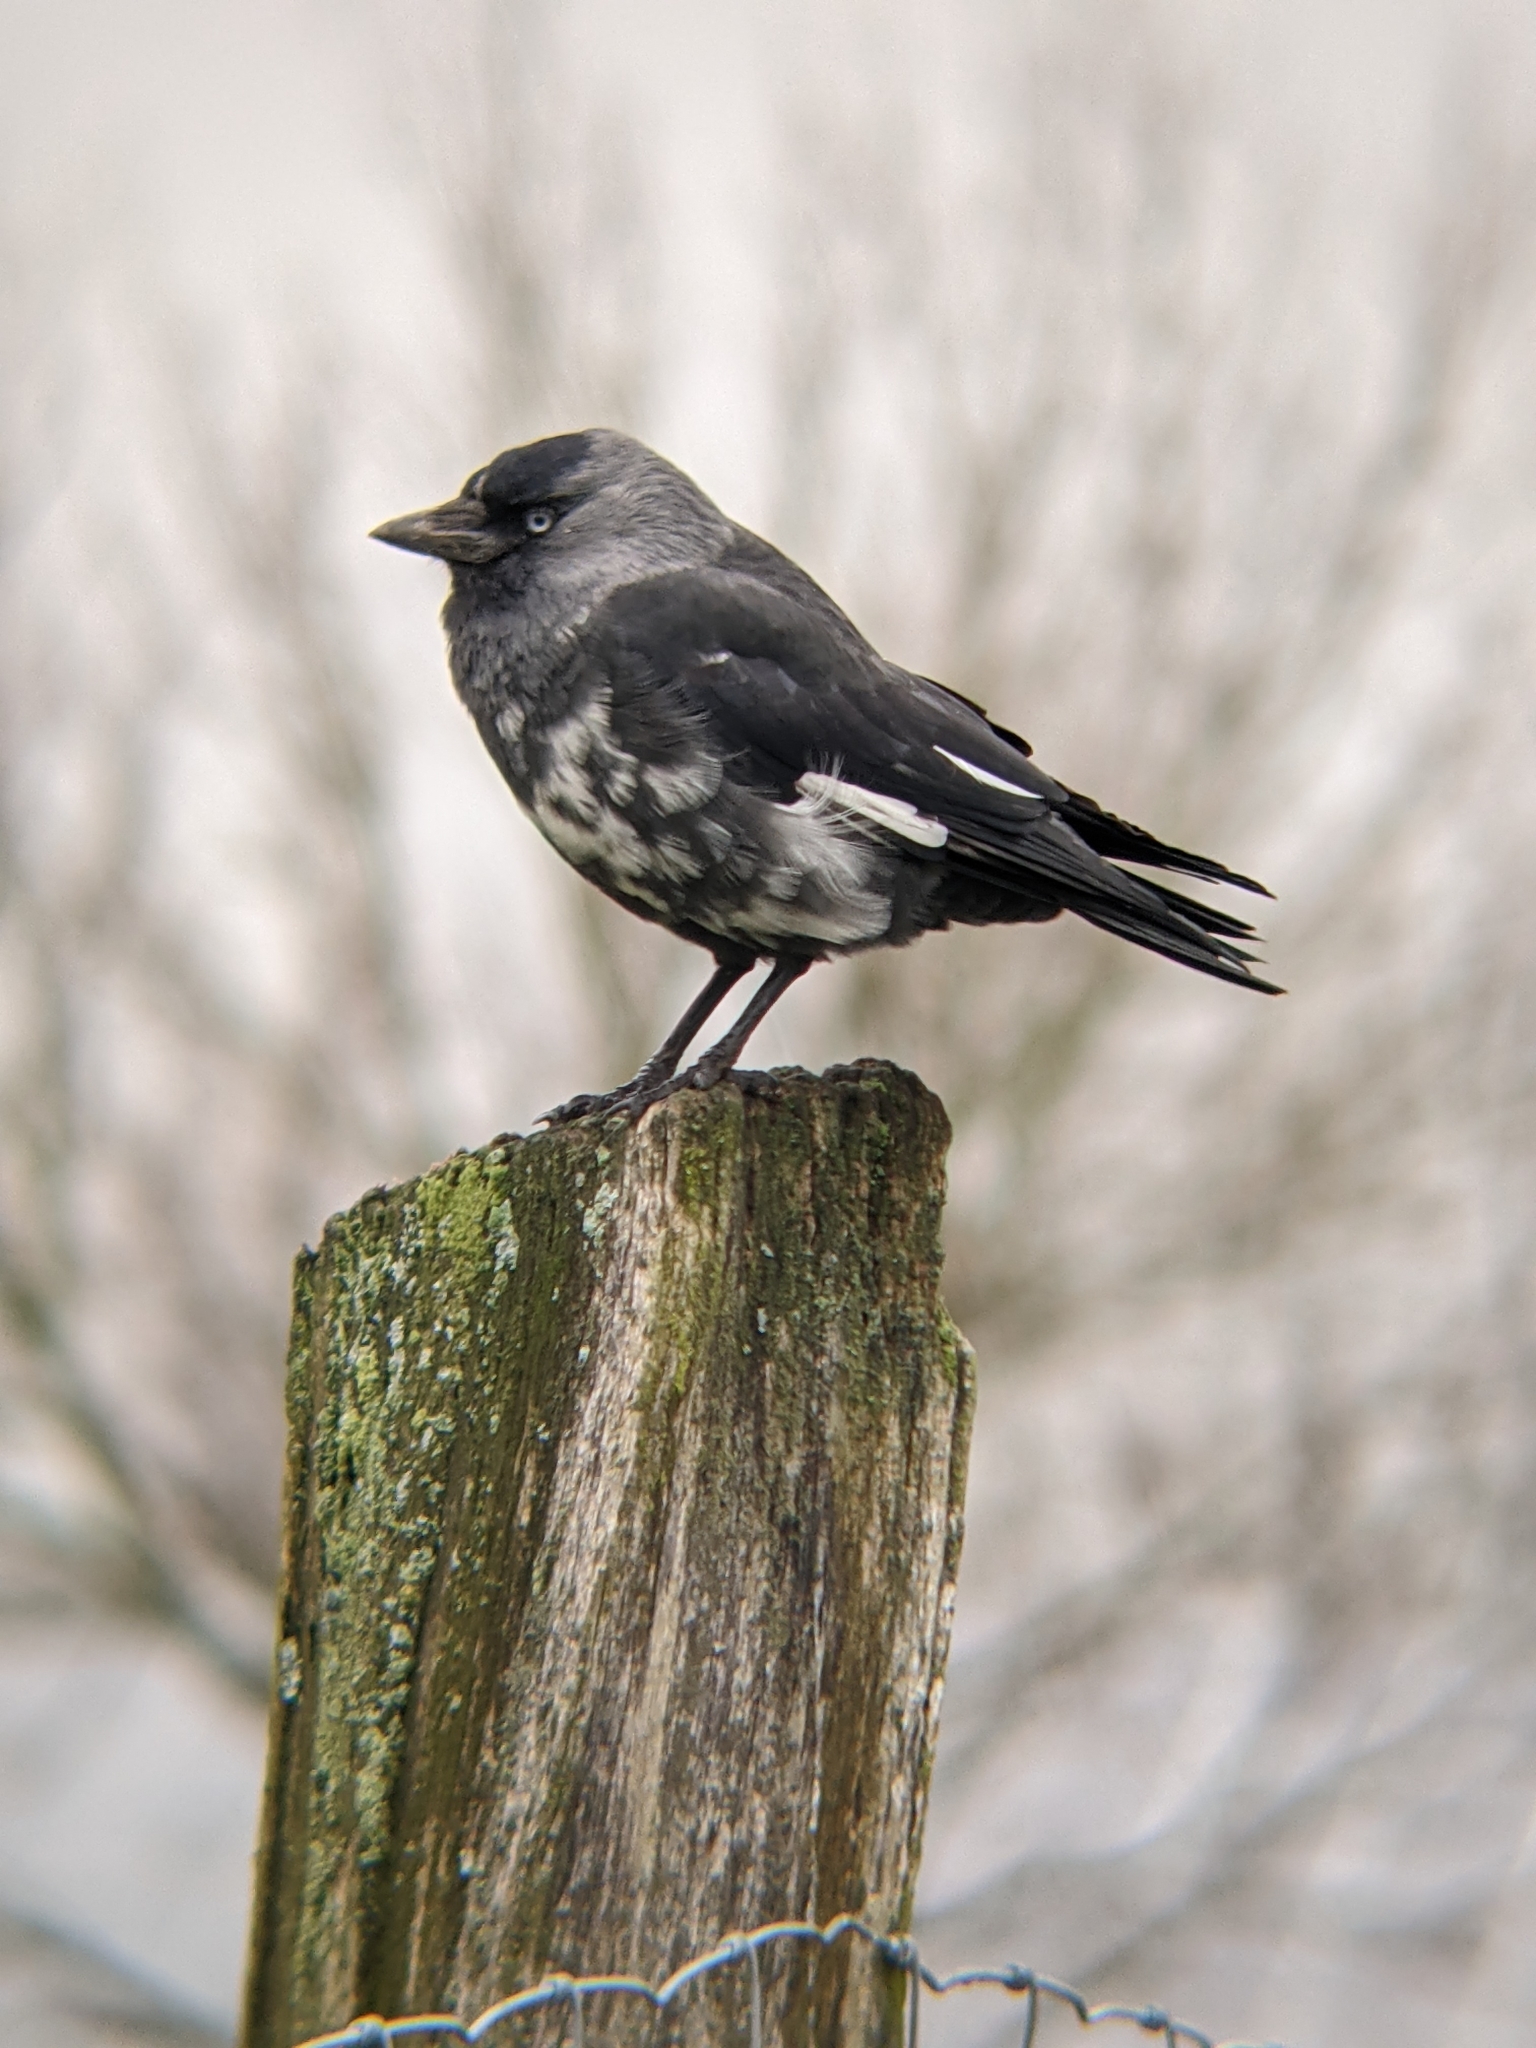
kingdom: Animalia
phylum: Chordata
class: Aves
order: Passeriformes
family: Corvidae
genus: Coloeus
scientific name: Coloeus monedula
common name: Western jackdaw
